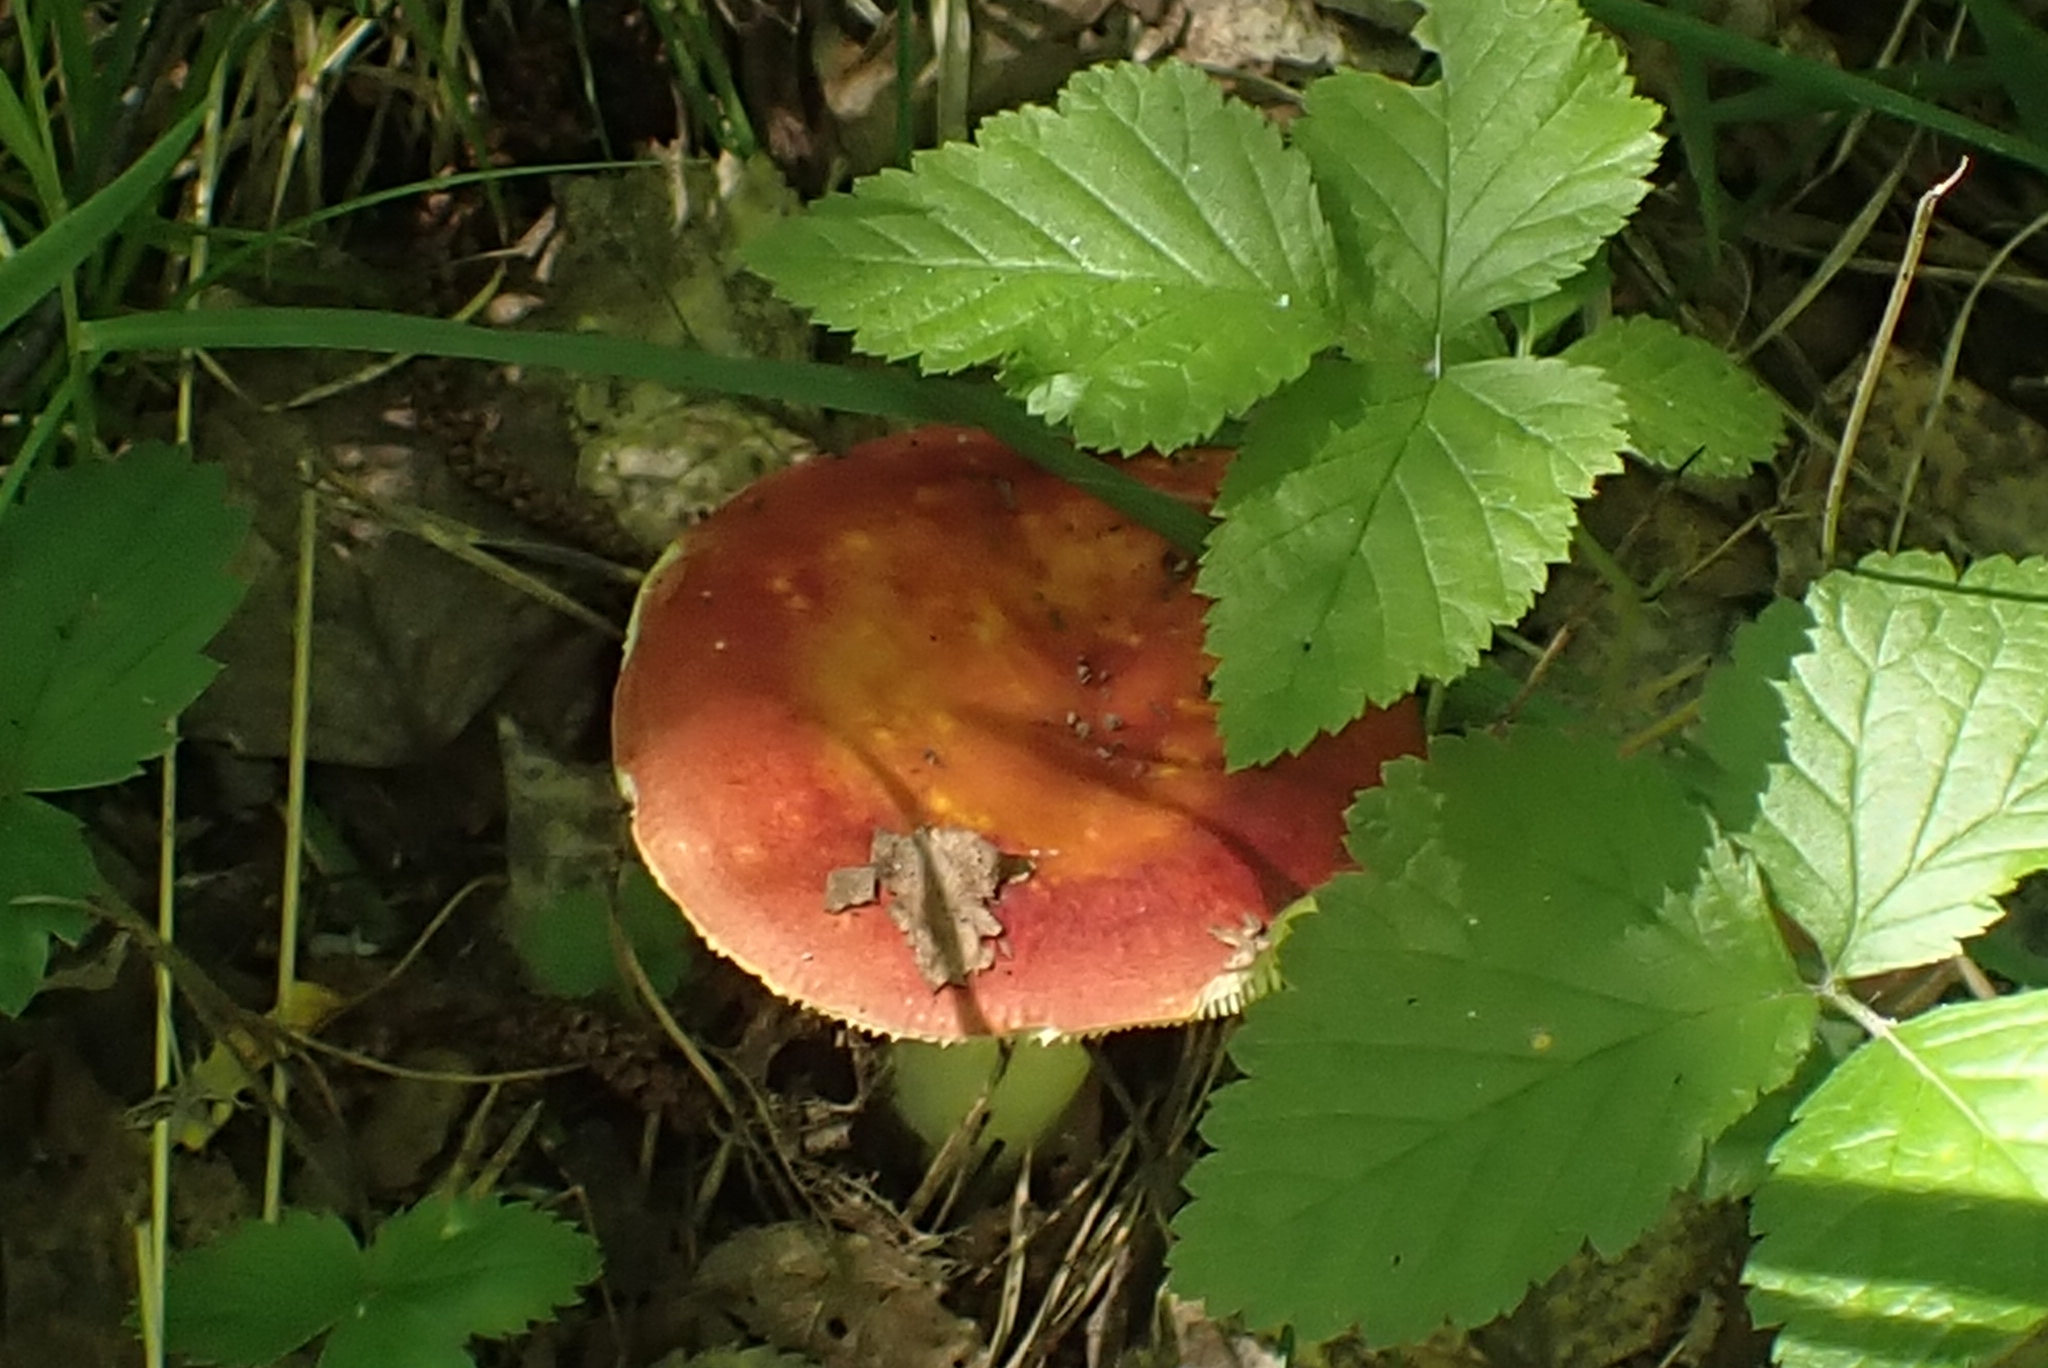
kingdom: Fungi
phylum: Basidiomycota
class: Agaricomycetes
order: Russulales
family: Russulaceae
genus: Russula
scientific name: Russula sanguinea
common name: Bloody brittlegill
